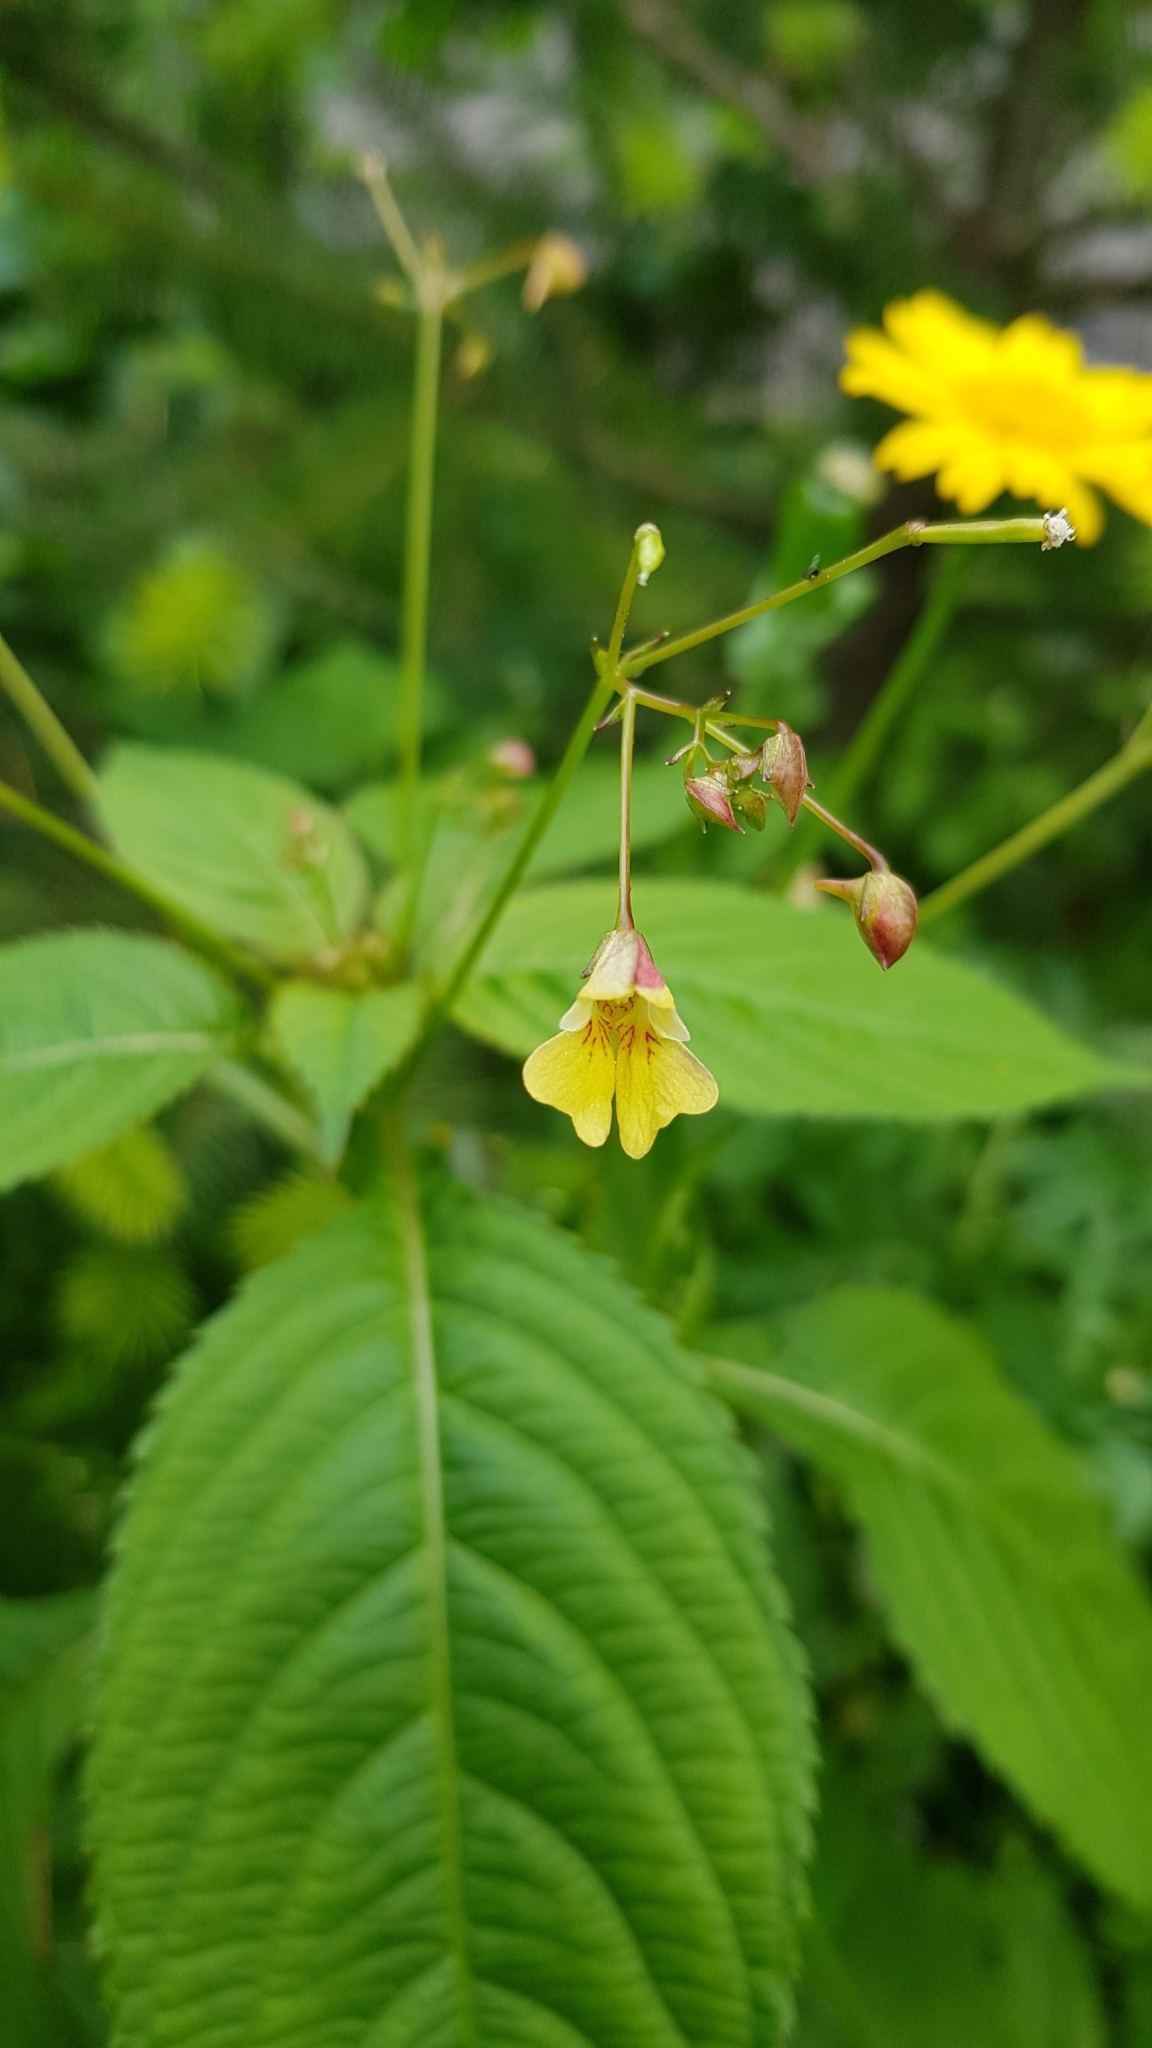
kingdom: Plantae
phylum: Tracheophyta
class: Magnoliopsida
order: Ericales
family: Balsaminaceae
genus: Impatiens
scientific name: Impatiens parviflora
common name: Small balsam
